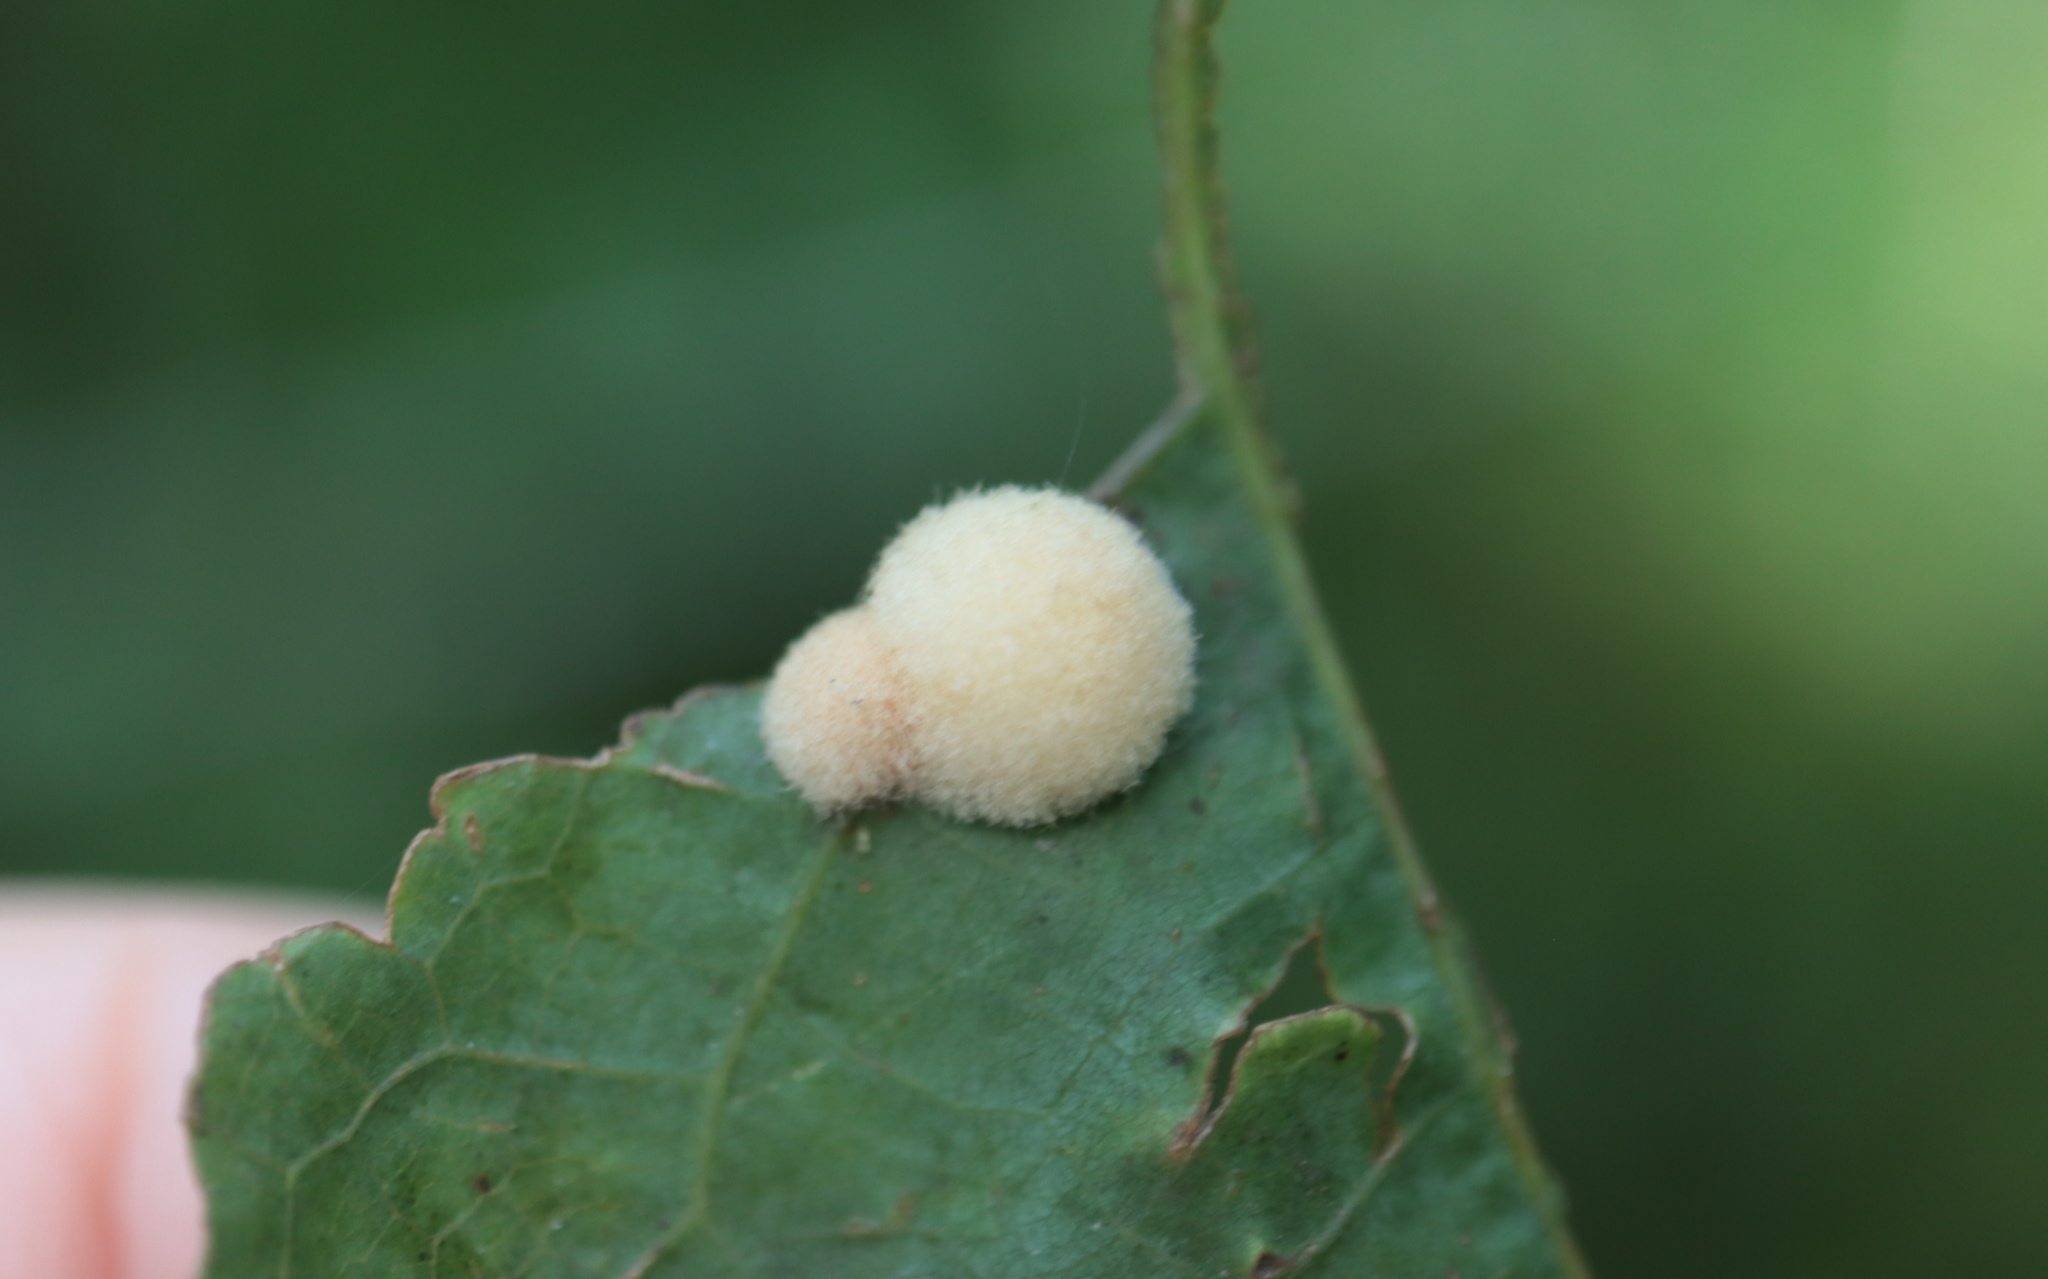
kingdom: Animalia
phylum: Arthropoda
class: Insecta
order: Hymenoptera
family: Cynipidae
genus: Callirhytis
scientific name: Callirhytis
